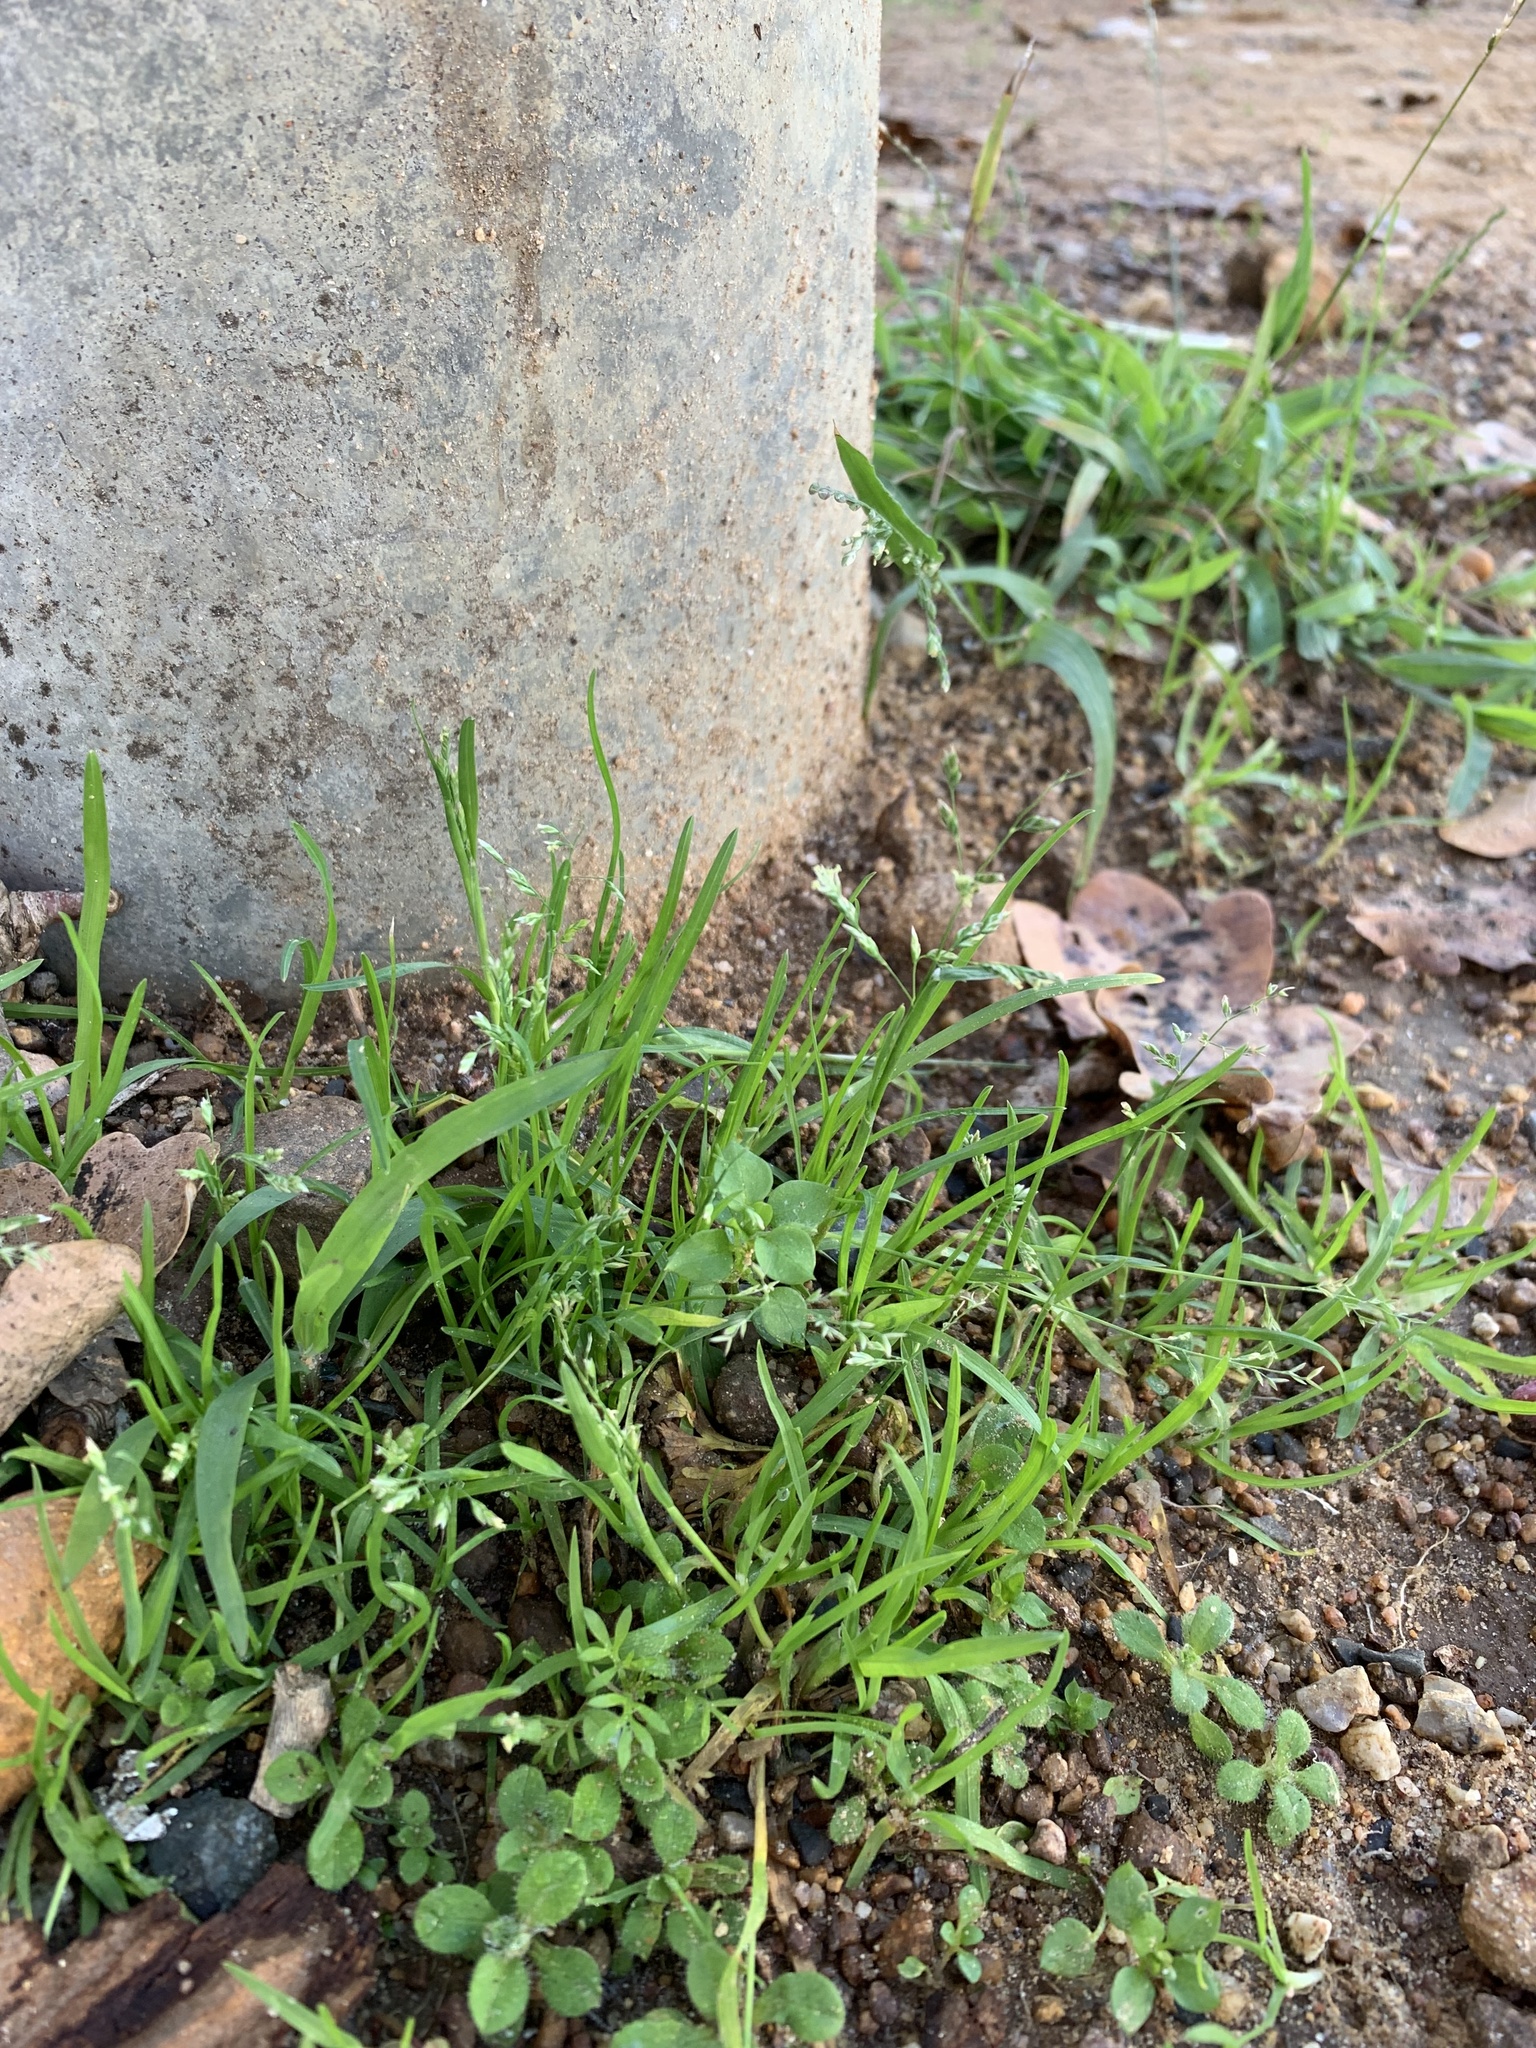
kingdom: Plantae
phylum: Tracheophyta
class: Liliopsida
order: Poales
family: Poaceae
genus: Poa
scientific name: Poa annua
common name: Annual bluegrass
